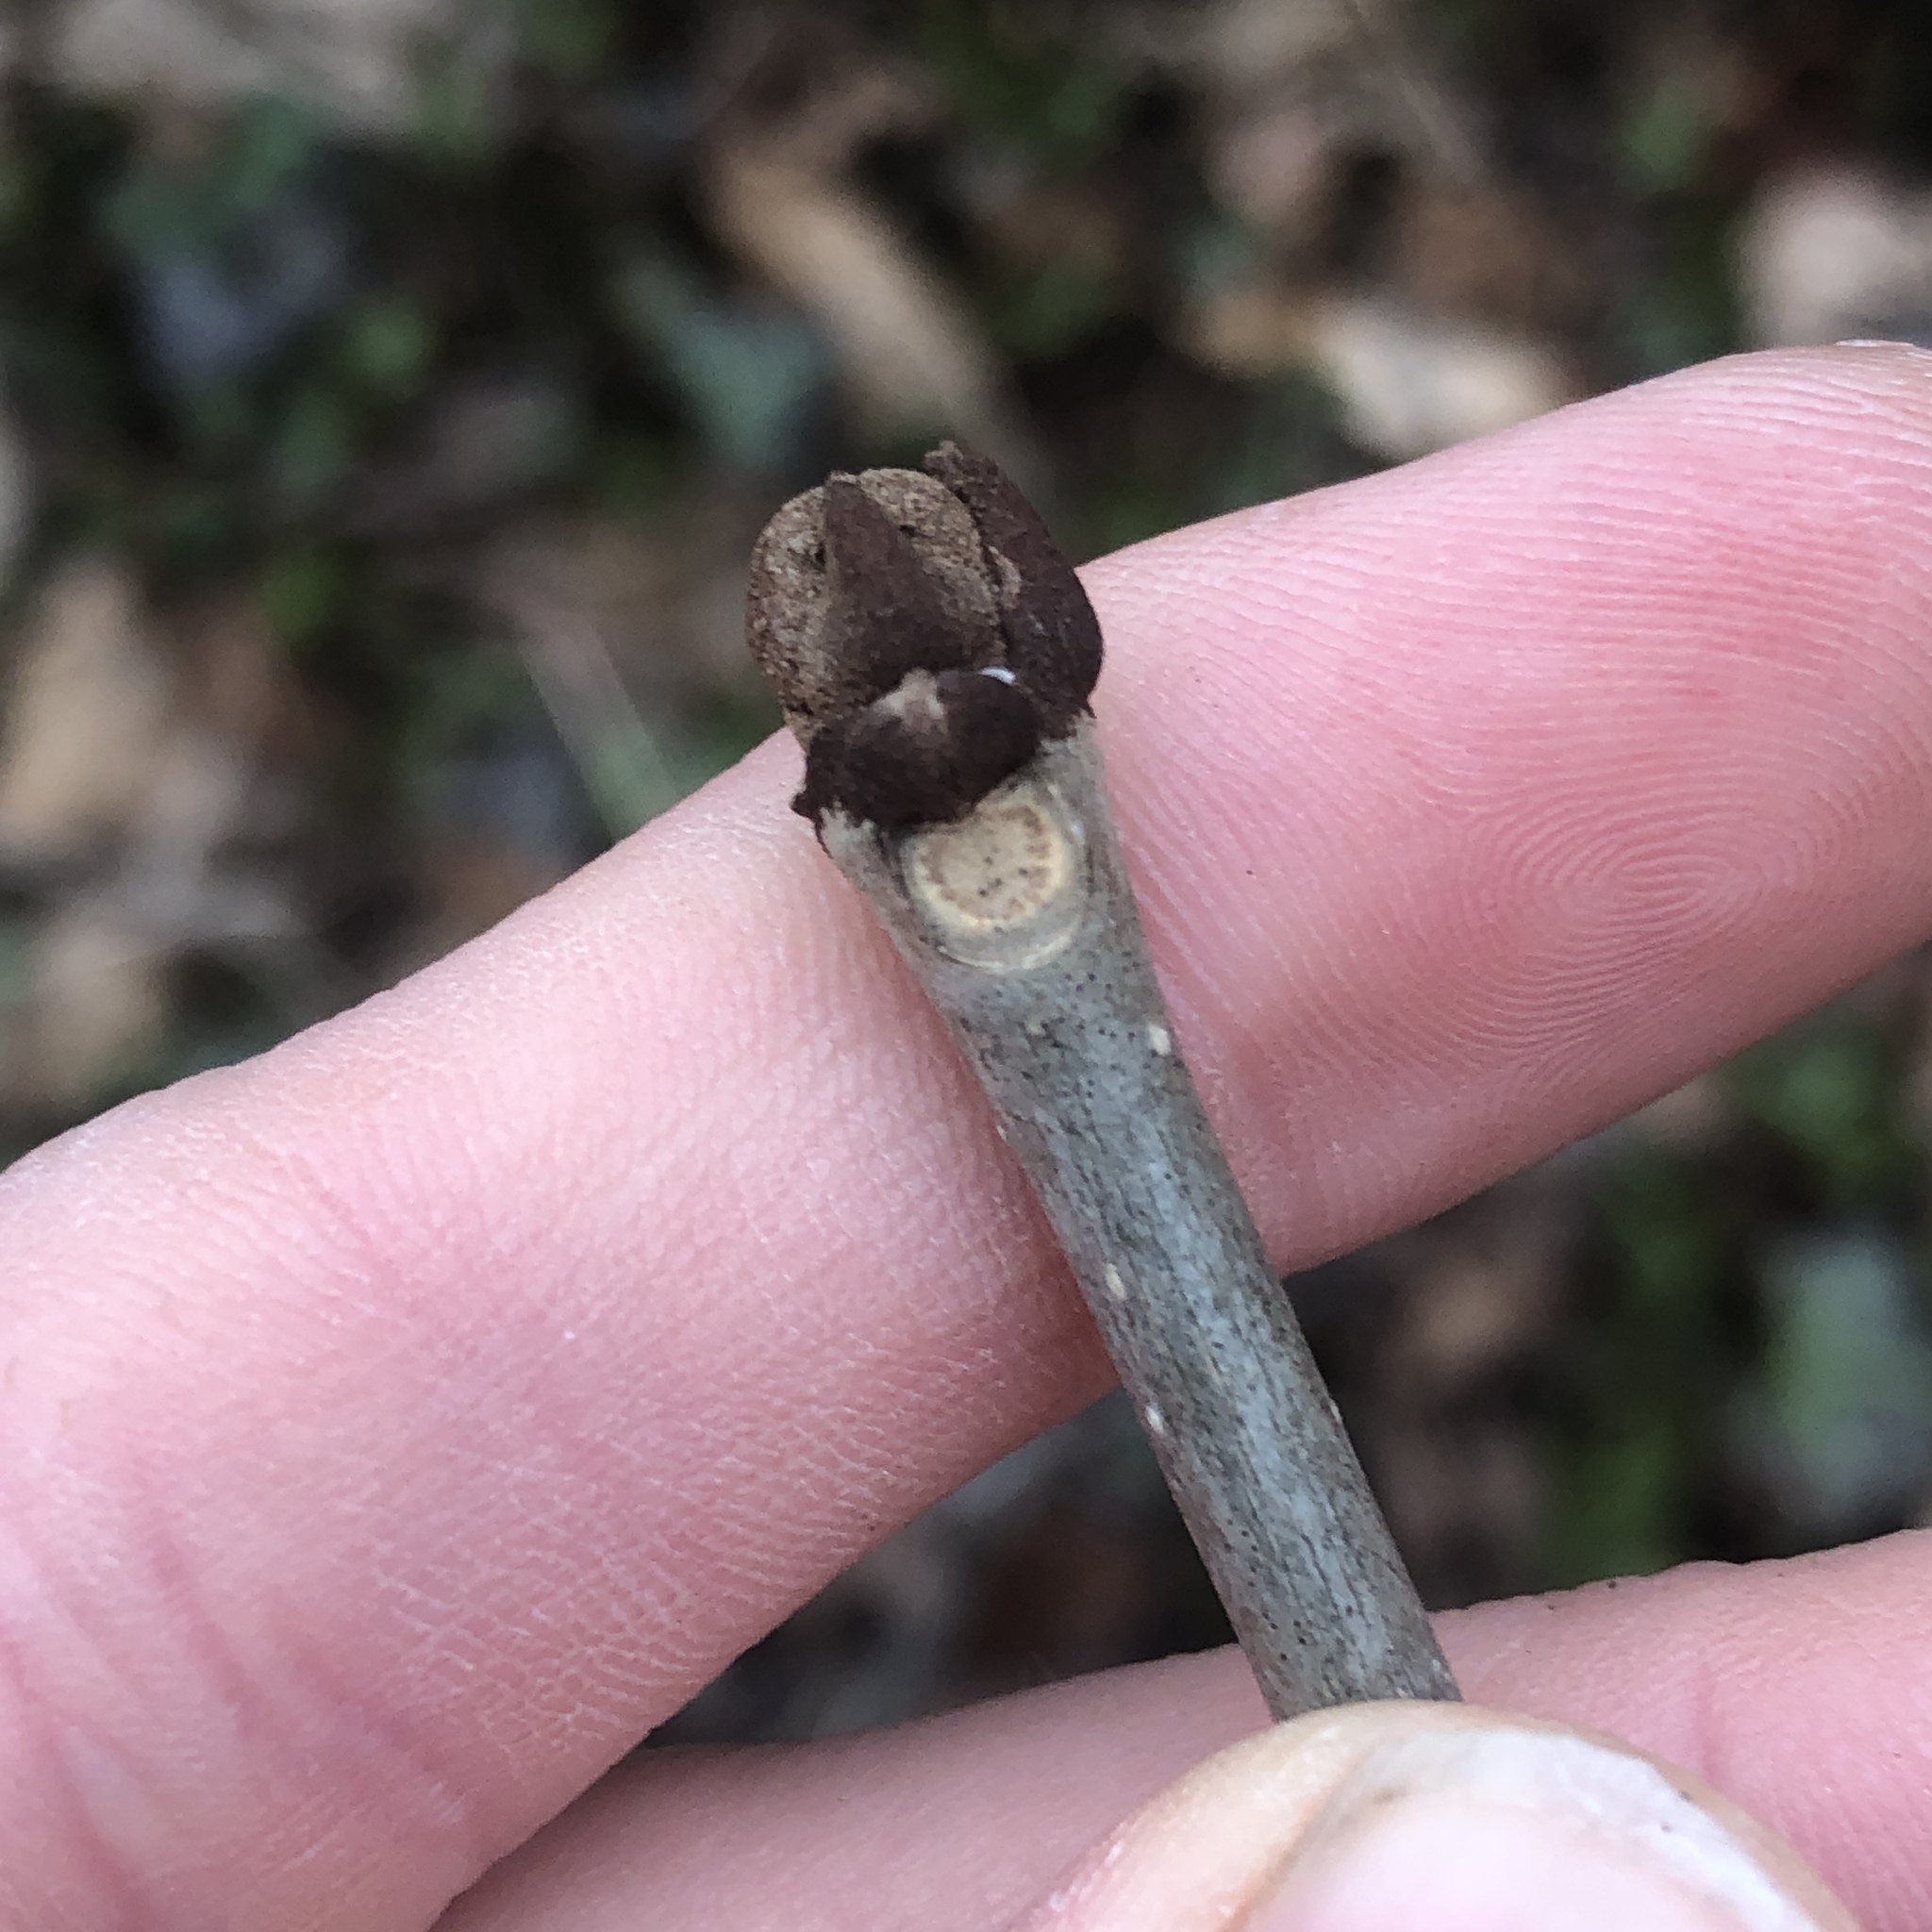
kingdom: Plantae
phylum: Tracheophyta
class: Magnoliopsida
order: Lamiales
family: Oleaceae
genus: Fraxinus
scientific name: Fraxinus pennsylvanica
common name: Green ash
